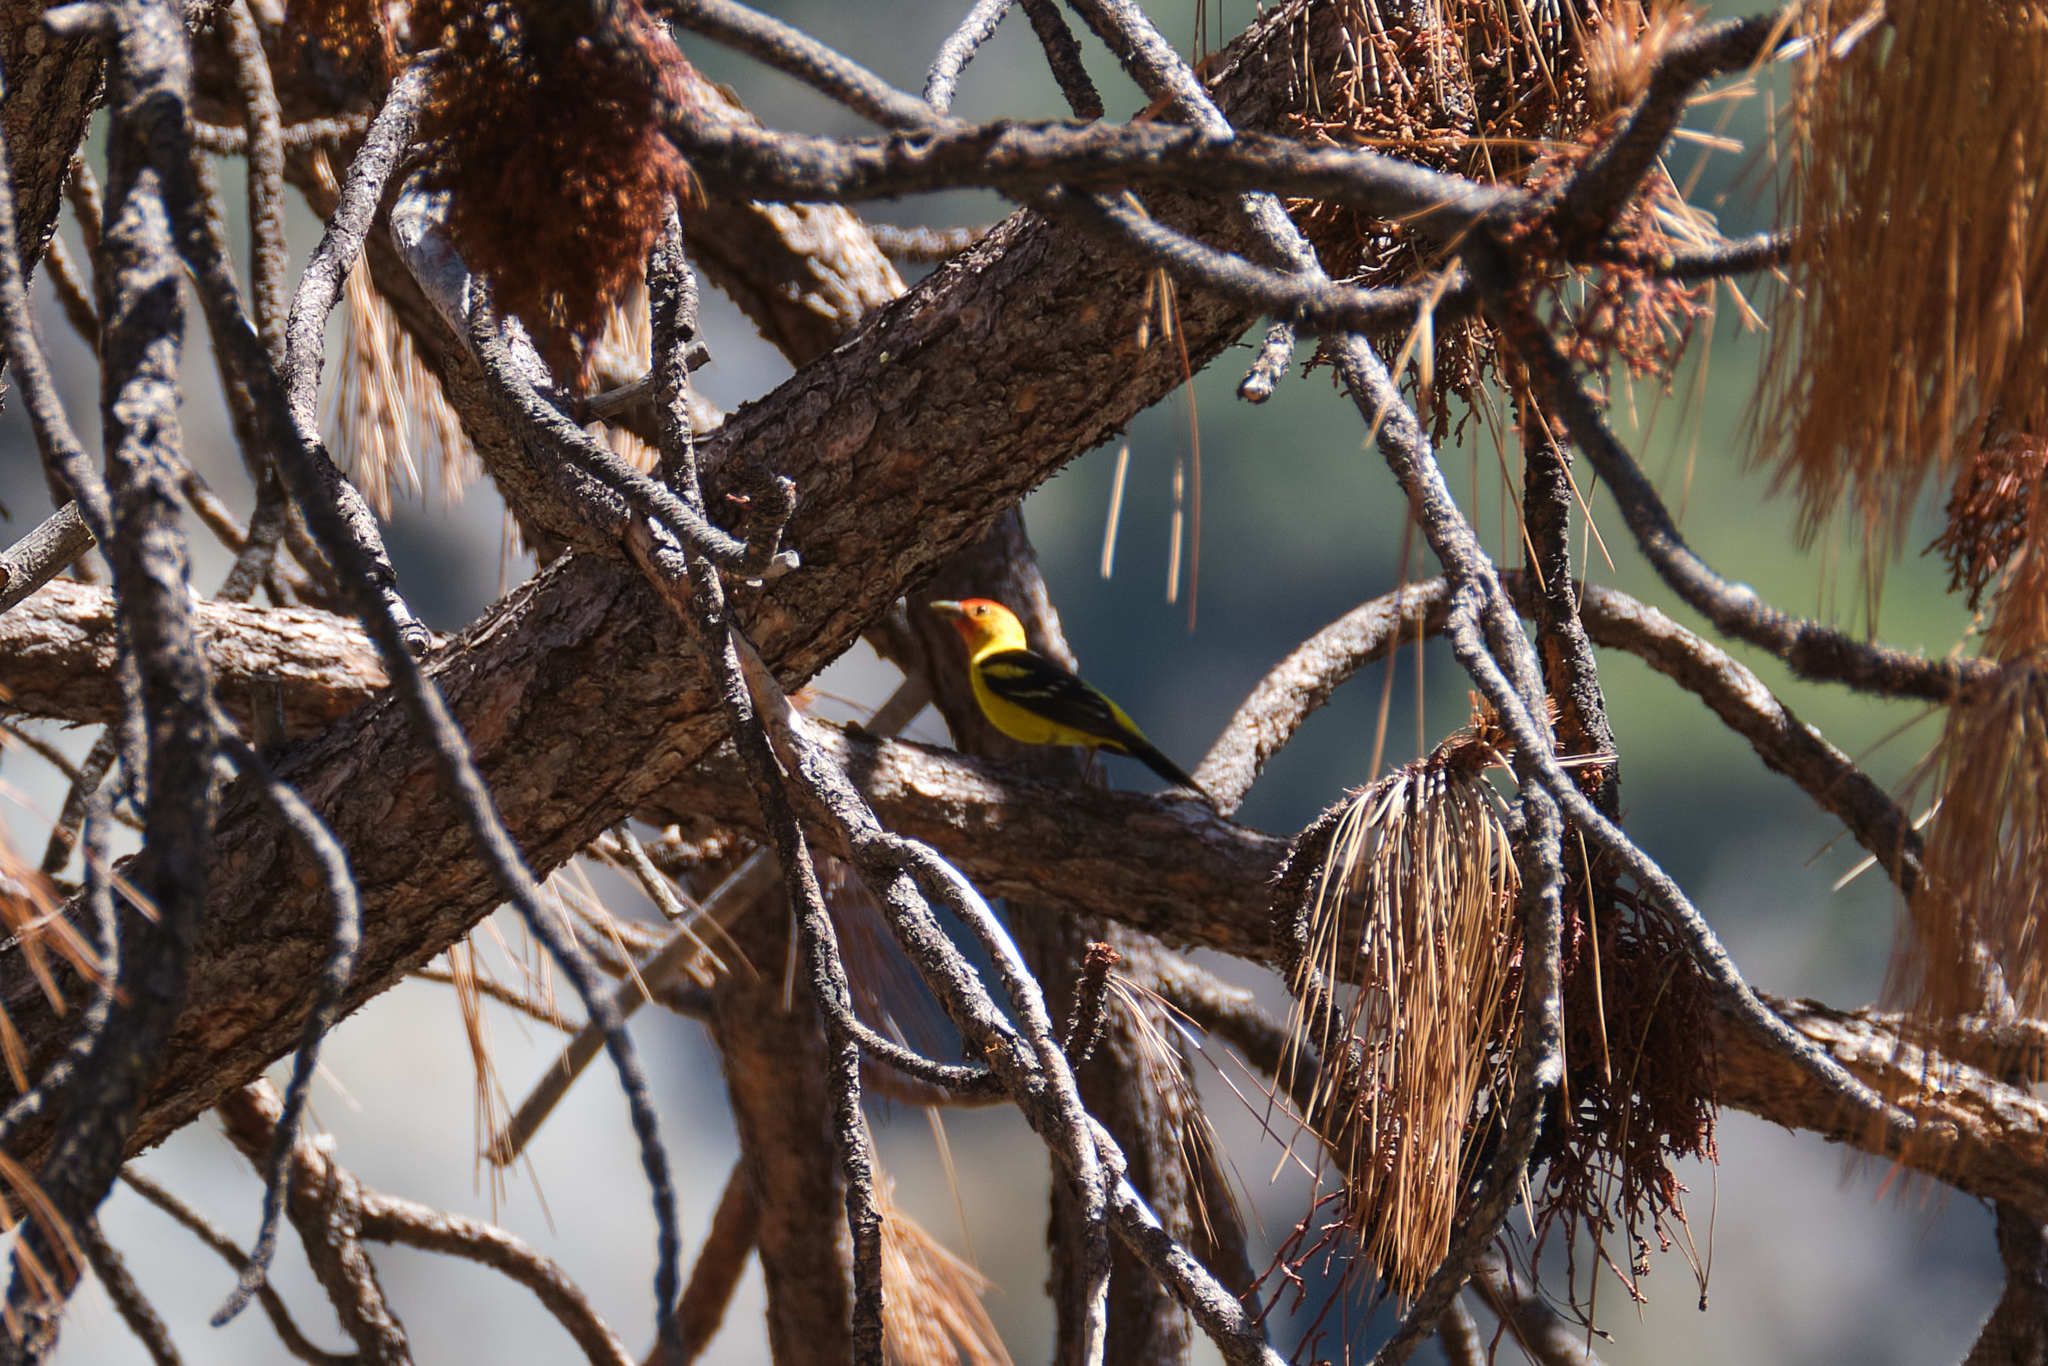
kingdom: Animalia
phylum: Chordata
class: Aves
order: Passeriformes
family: Cardinalidae
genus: Piranga
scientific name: Piranga ludoviciana
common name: Western tanager
